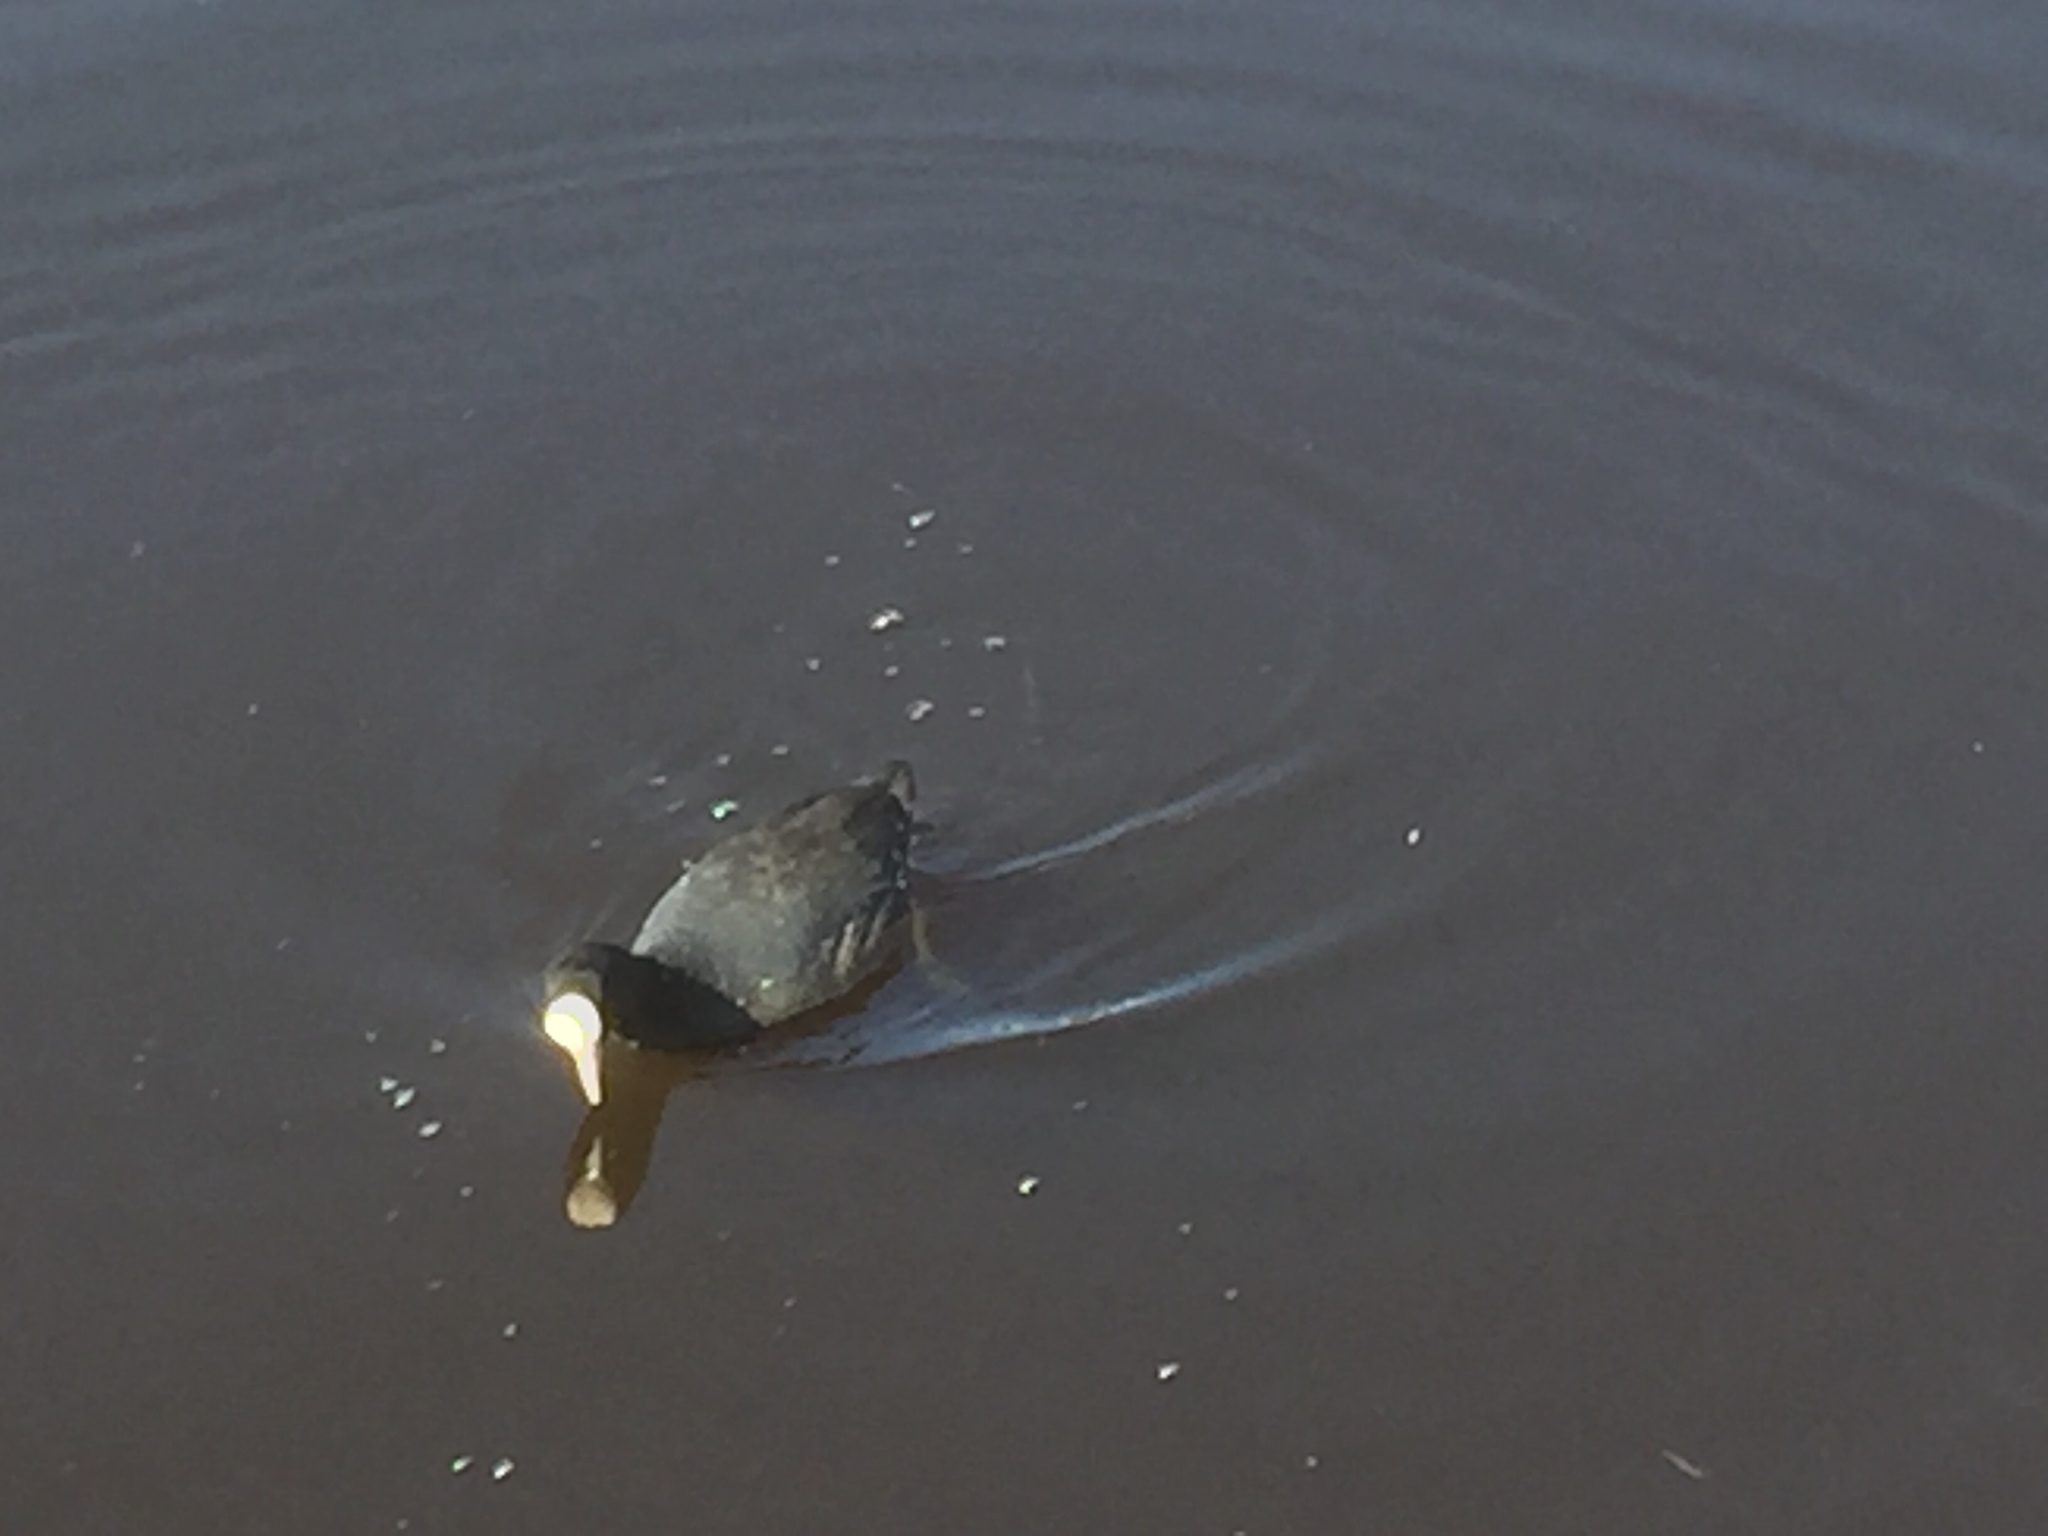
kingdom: Animalia
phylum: Chordata
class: Aves
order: Gruiformes
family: Rallidae
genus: Fulica
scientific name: Fulica atra
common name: Eurasian coot
